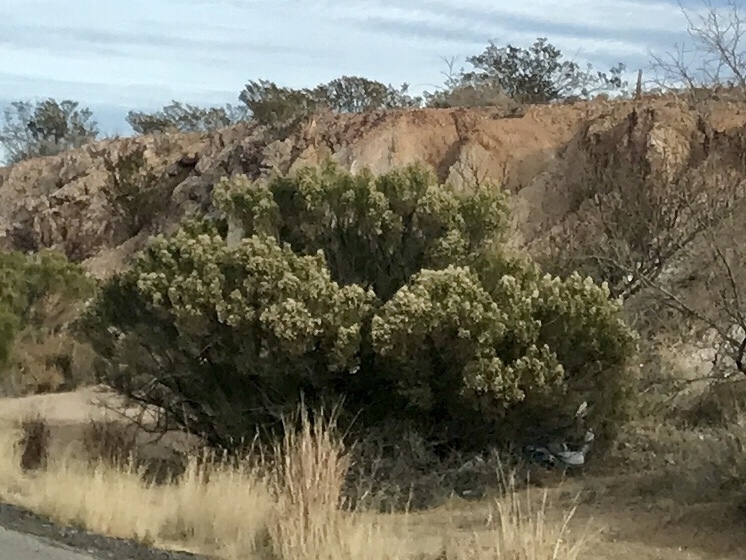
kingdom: Plantae
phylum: Tracheophyta
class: Magnoliopsida
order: Asterales
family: Asteraceae
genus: Baccharis
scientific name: Baccharis sarothroides
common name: Desert-broom
